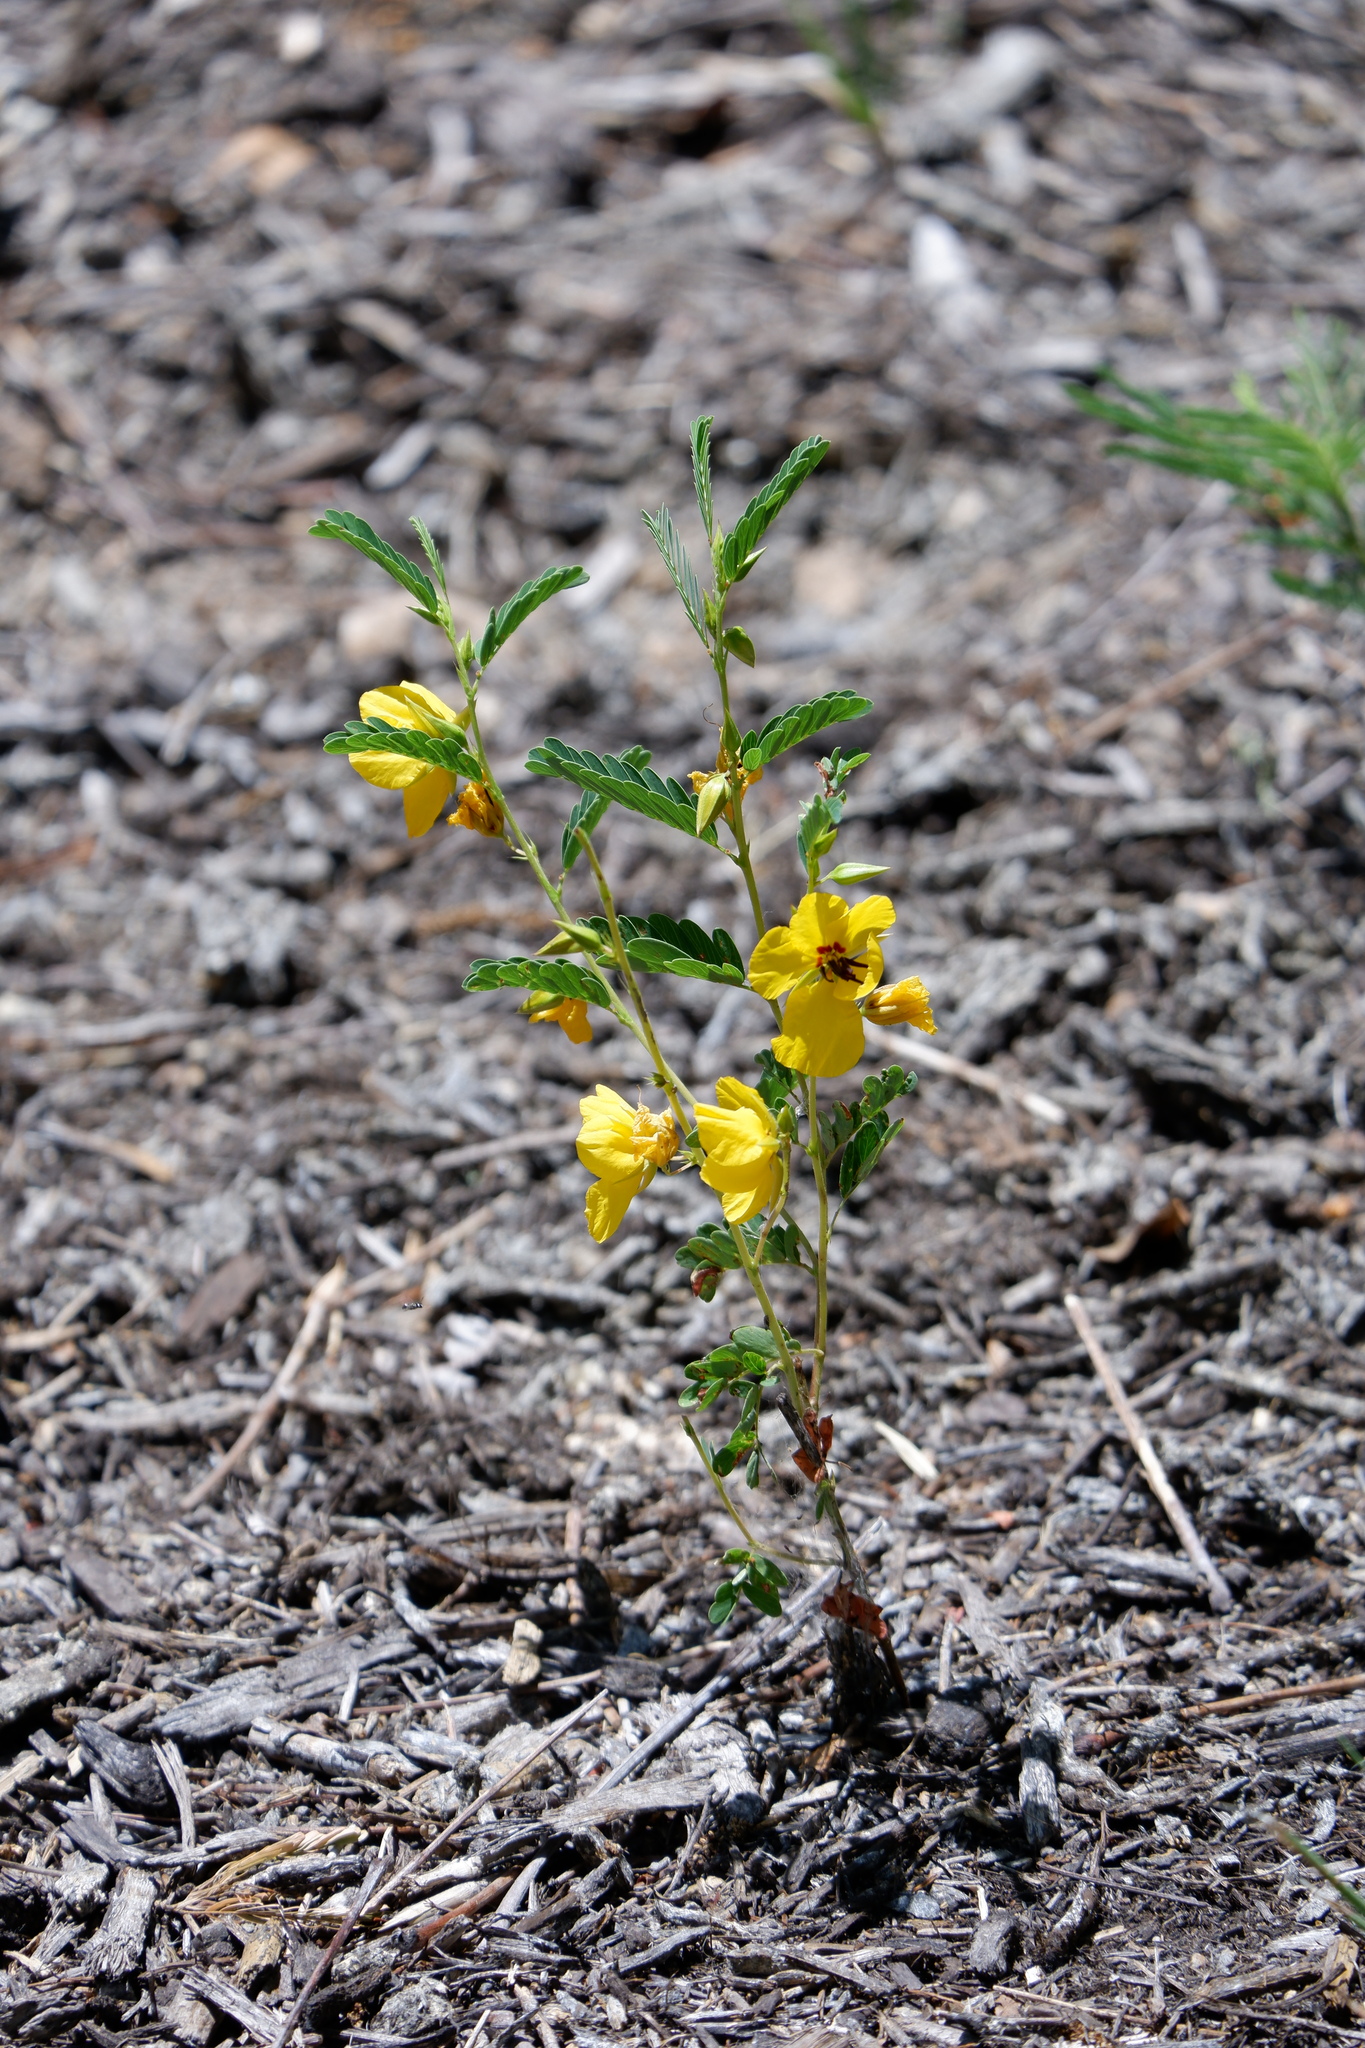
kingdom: Plantae
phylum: Tracheophyta
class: Magnoliopsida
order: Fabales
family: Fabaceae
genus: Chamaecrista
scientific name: Chamaecrista fasciculata
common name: Golden cassia
